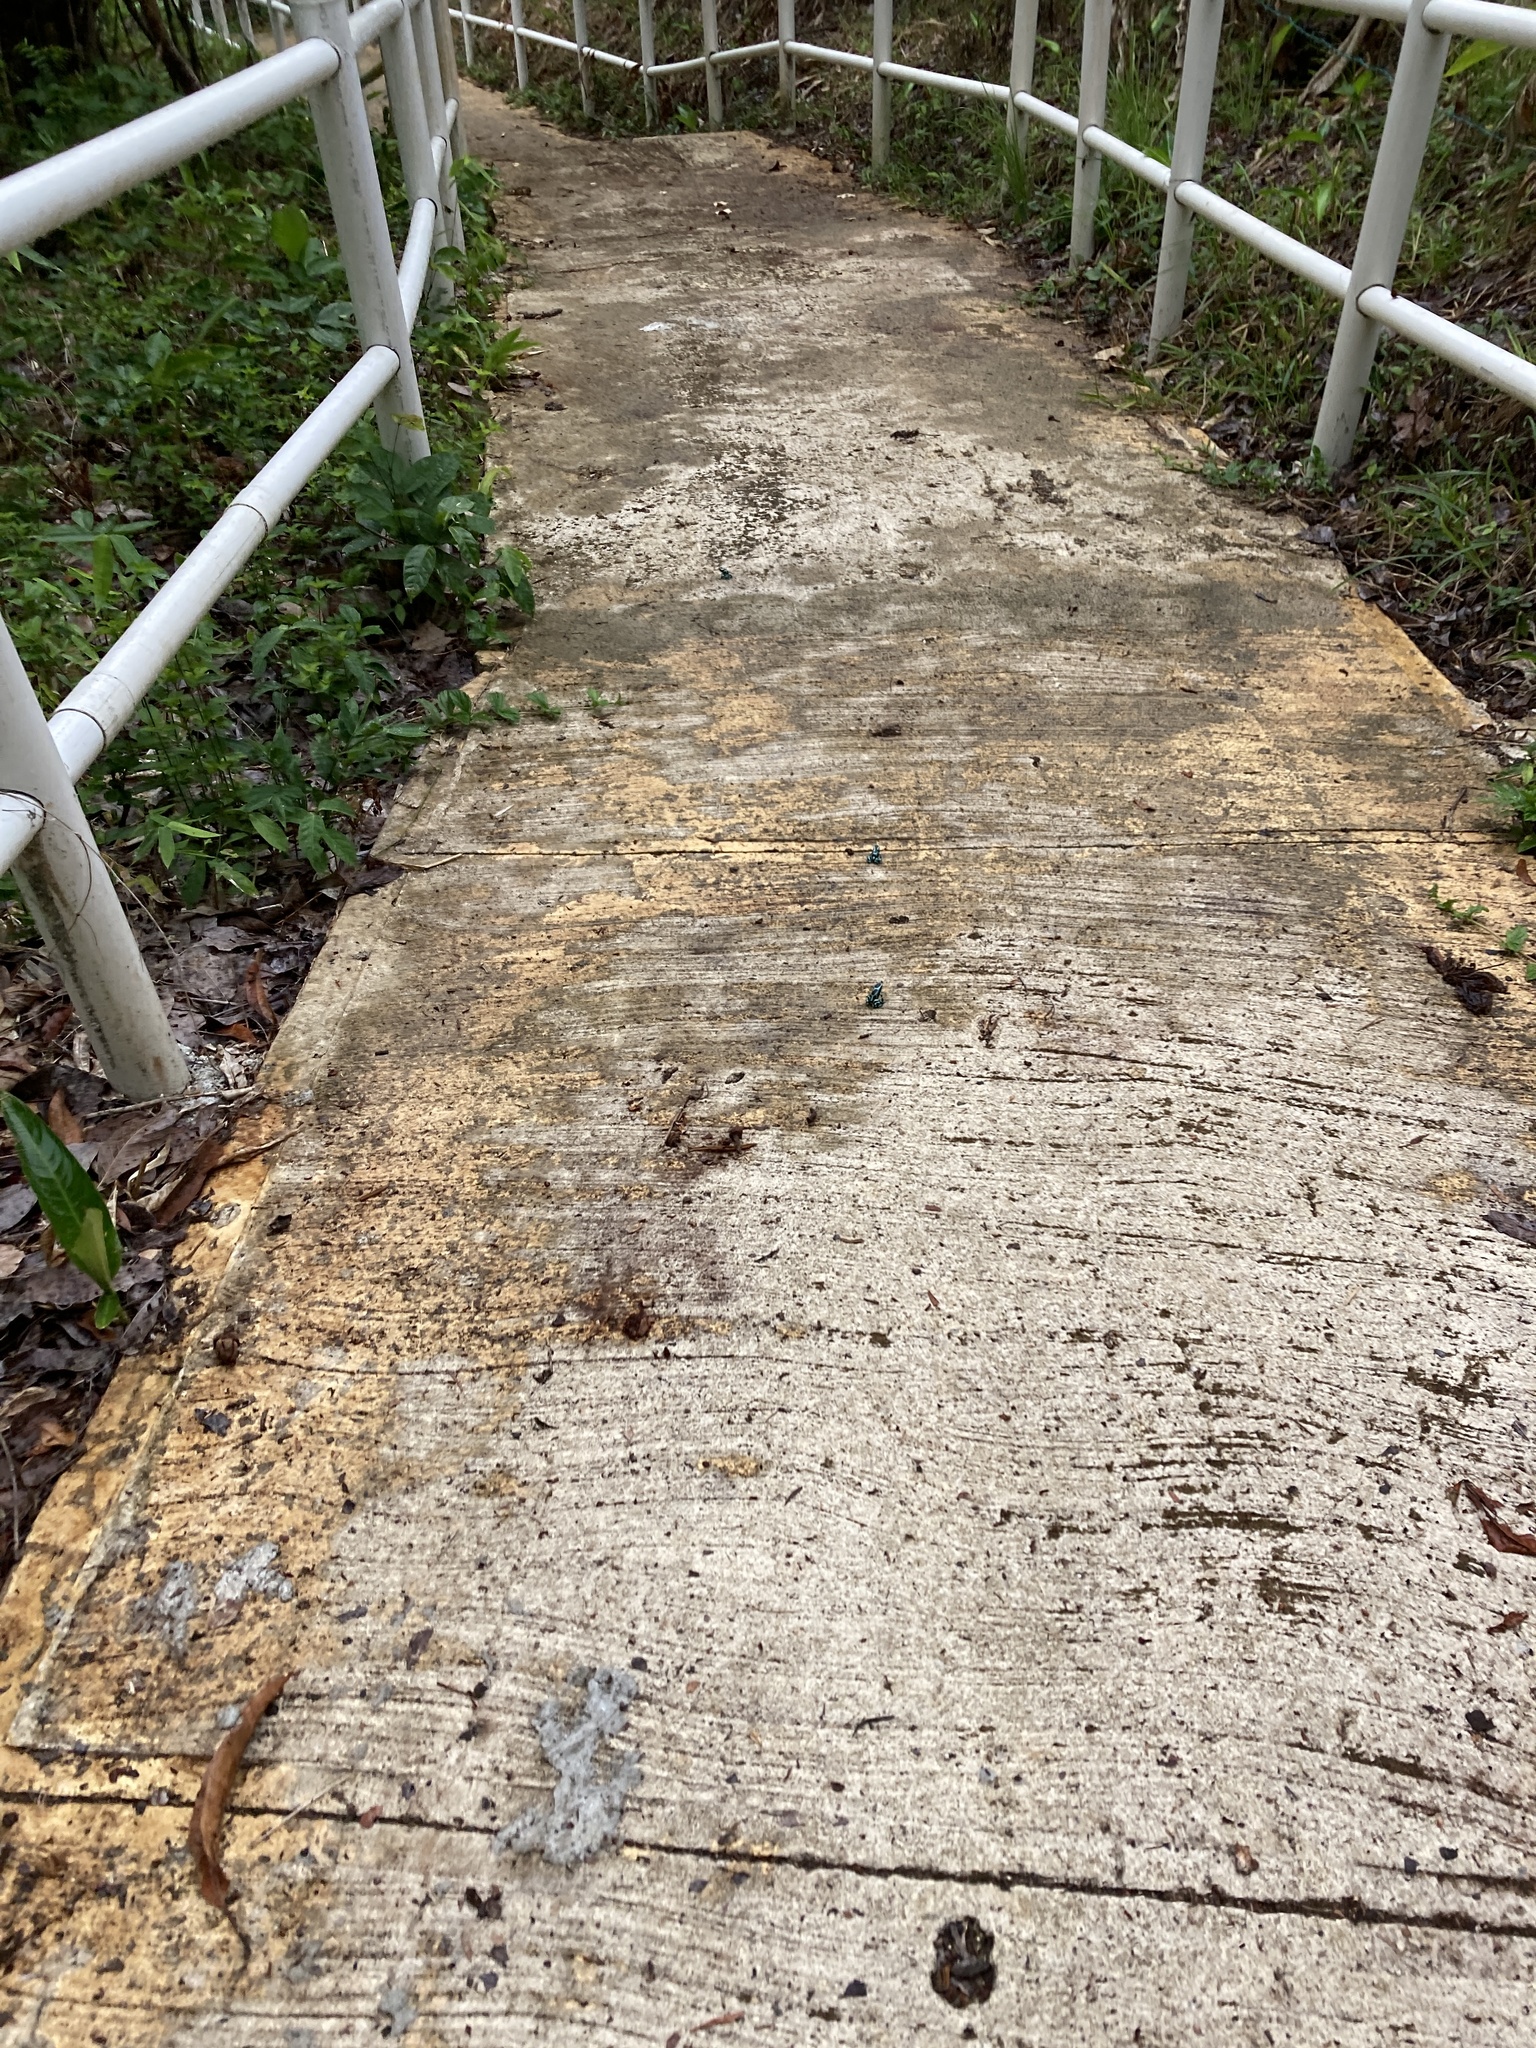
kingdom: Animalia
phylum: Chordata
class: Amphibia
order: Anura
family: Dendrobatidae
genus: Dendrobates
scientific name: Dendrobates auratus
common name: Green and black poison dart frog
